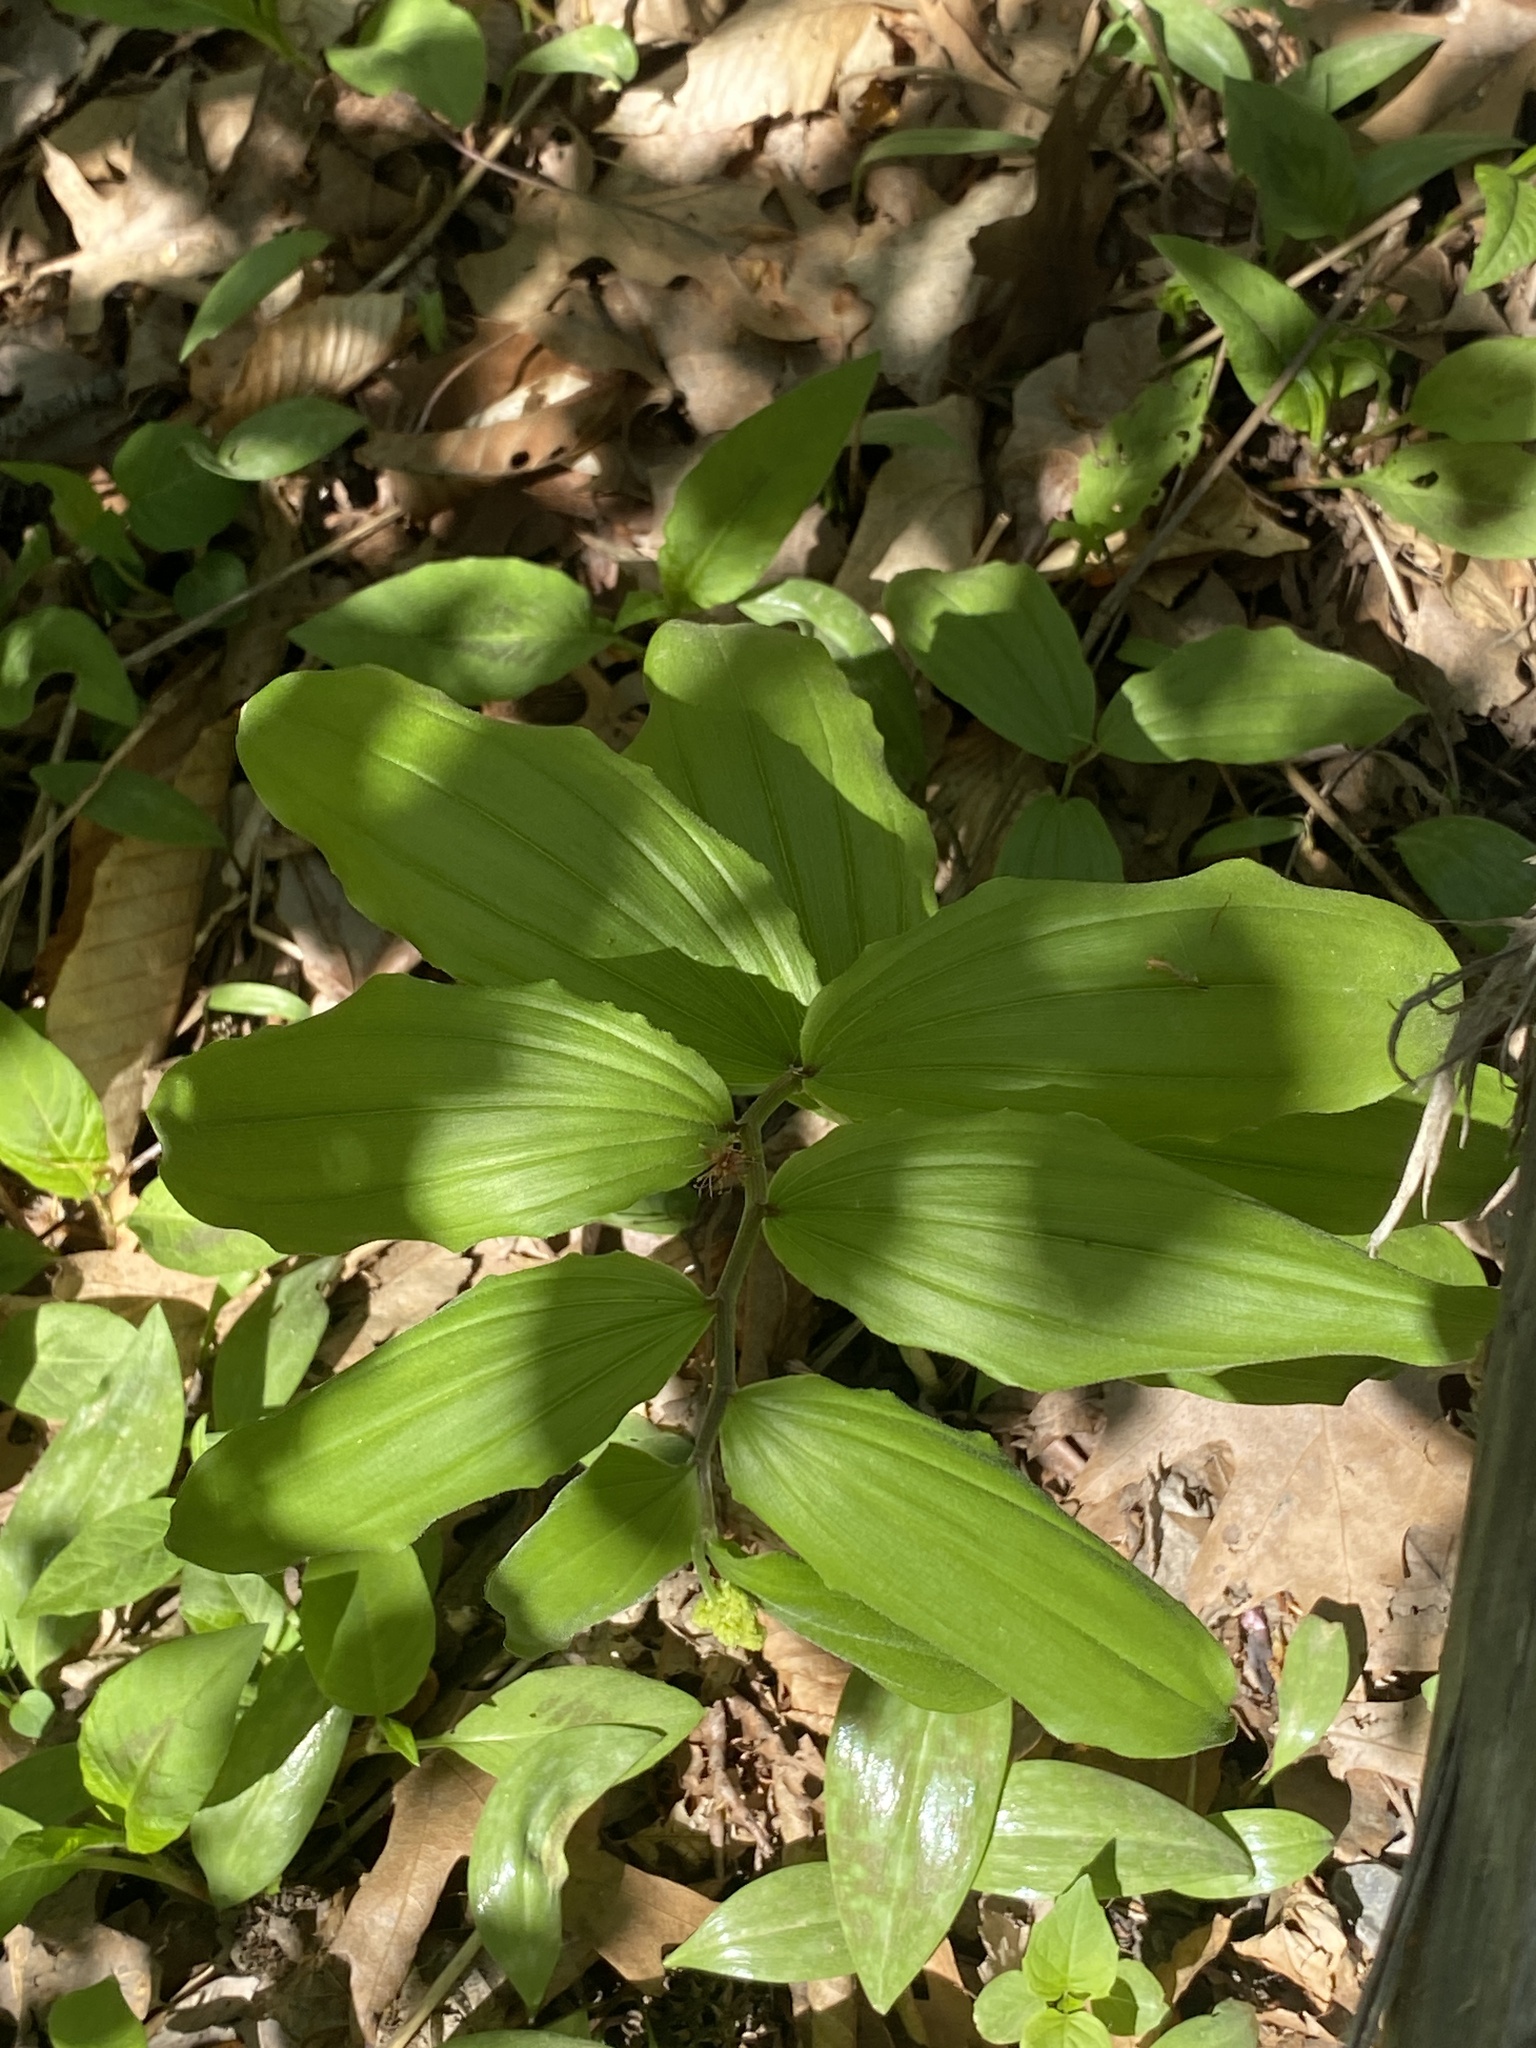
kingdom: Plantae
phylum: Tracheophyta
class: Liliopsida
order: Asparagales
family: Asparagaceae
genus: Maianthemum
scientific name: Maianthemum racemosum
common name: False spikenard
